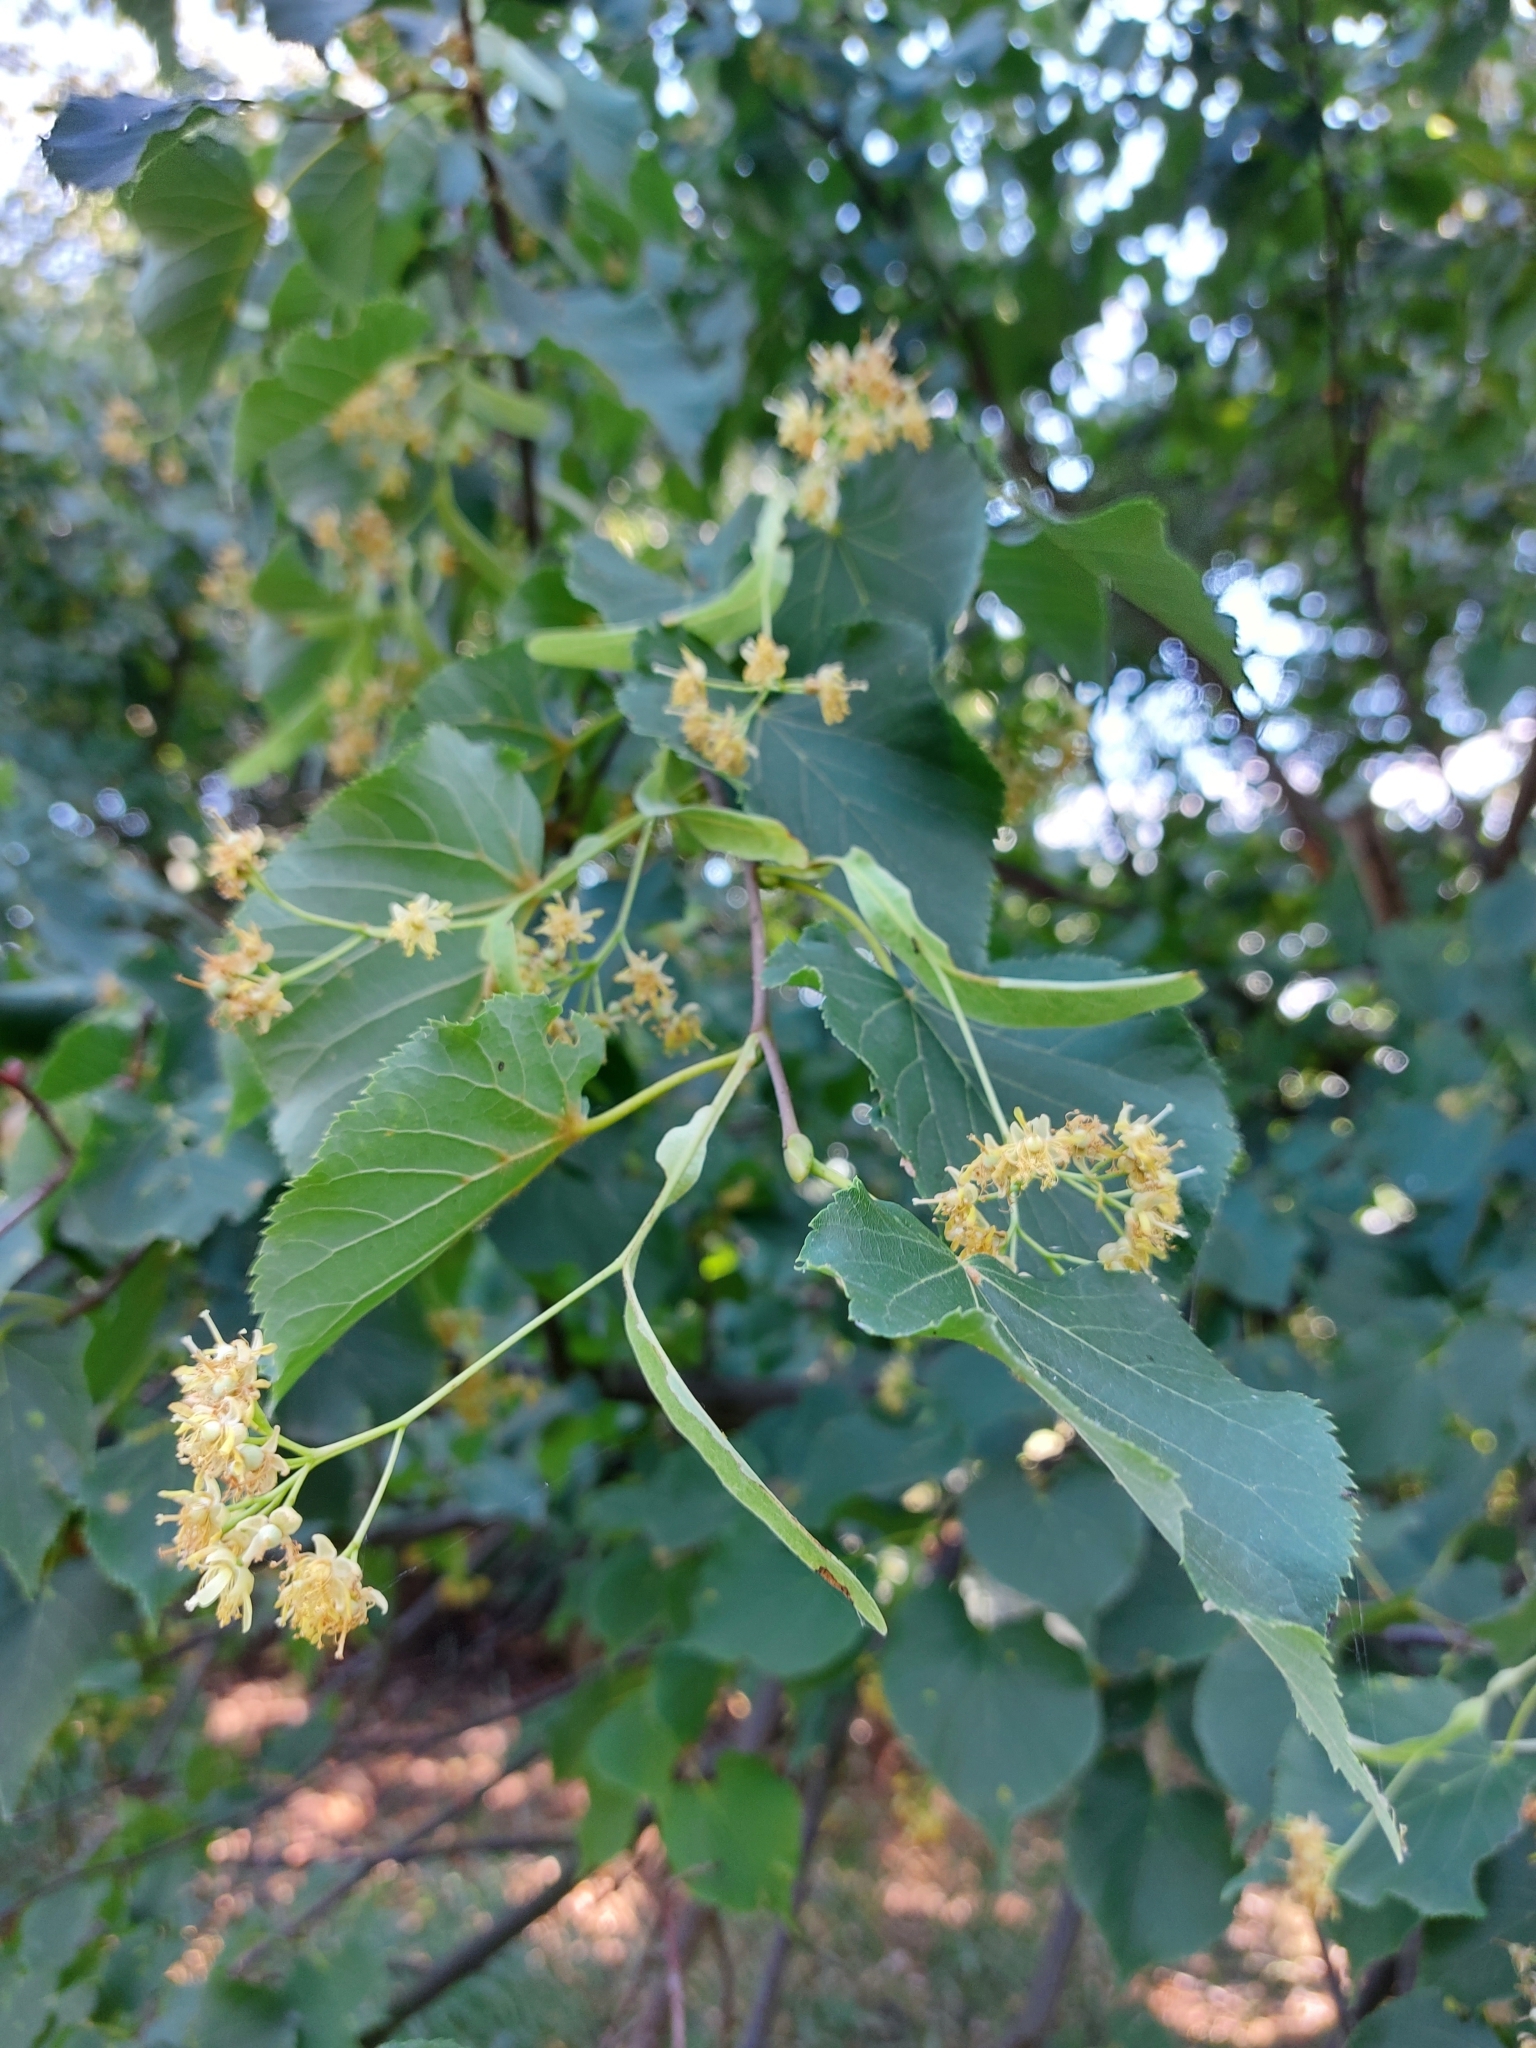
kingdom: Plantae
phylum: Tracheophyta
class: Magnoliopsida
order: Malvales
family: Malvaceae
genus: Tilia
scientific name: Tilia cordata
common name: Small-leaved lime
